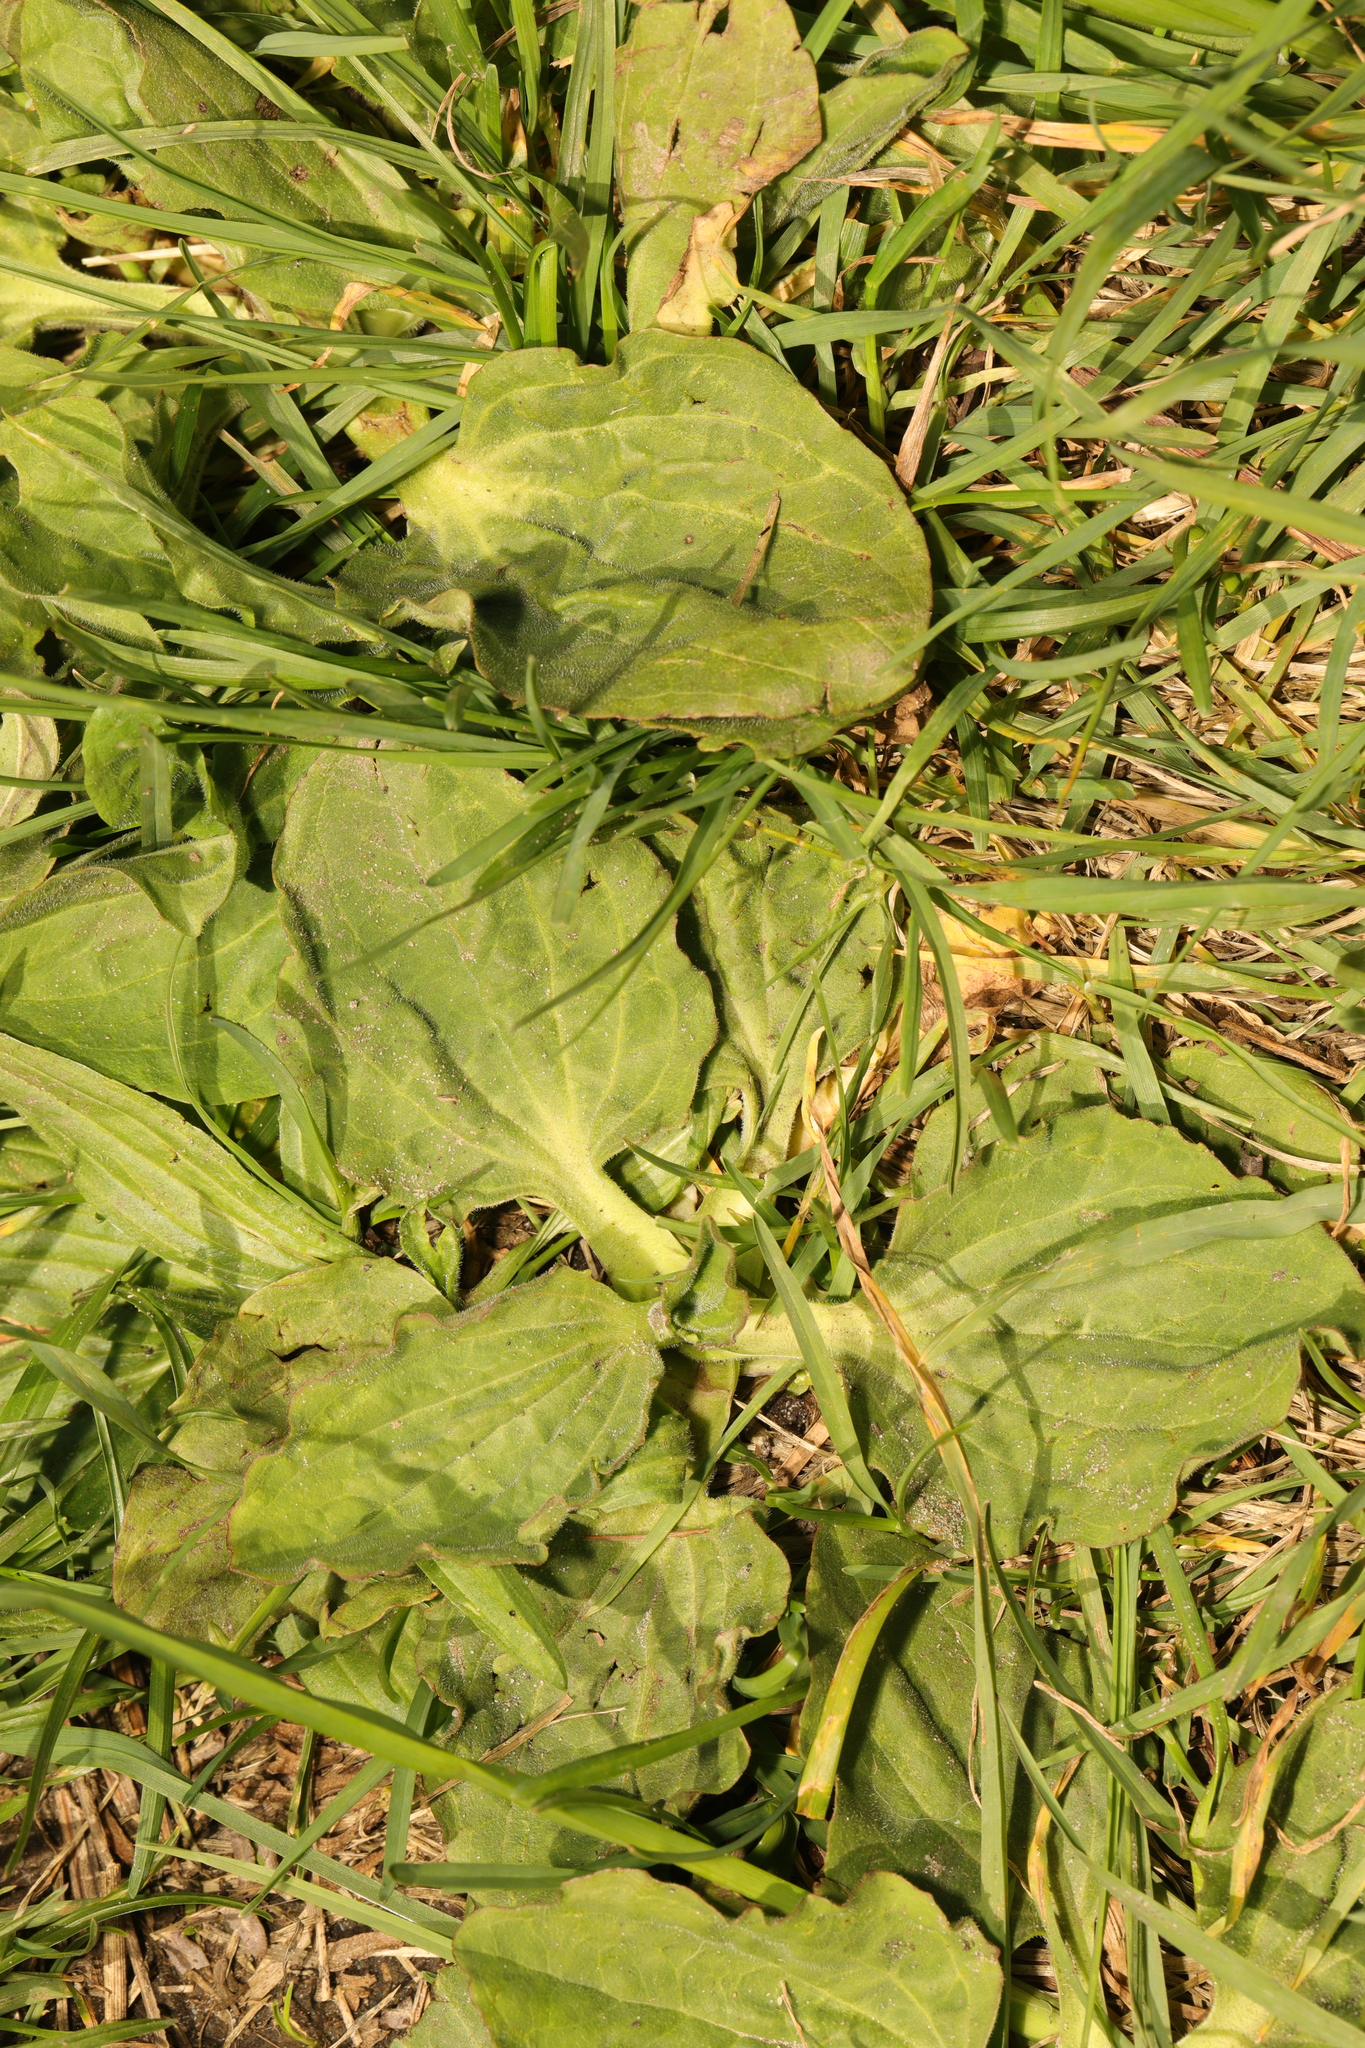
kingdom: Plantae
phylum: Tracheophyta
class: Magnoliopsida
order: Lamiales
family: Plantaginaceae
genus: Plantago
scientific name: Plantago major
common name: Common plantain
